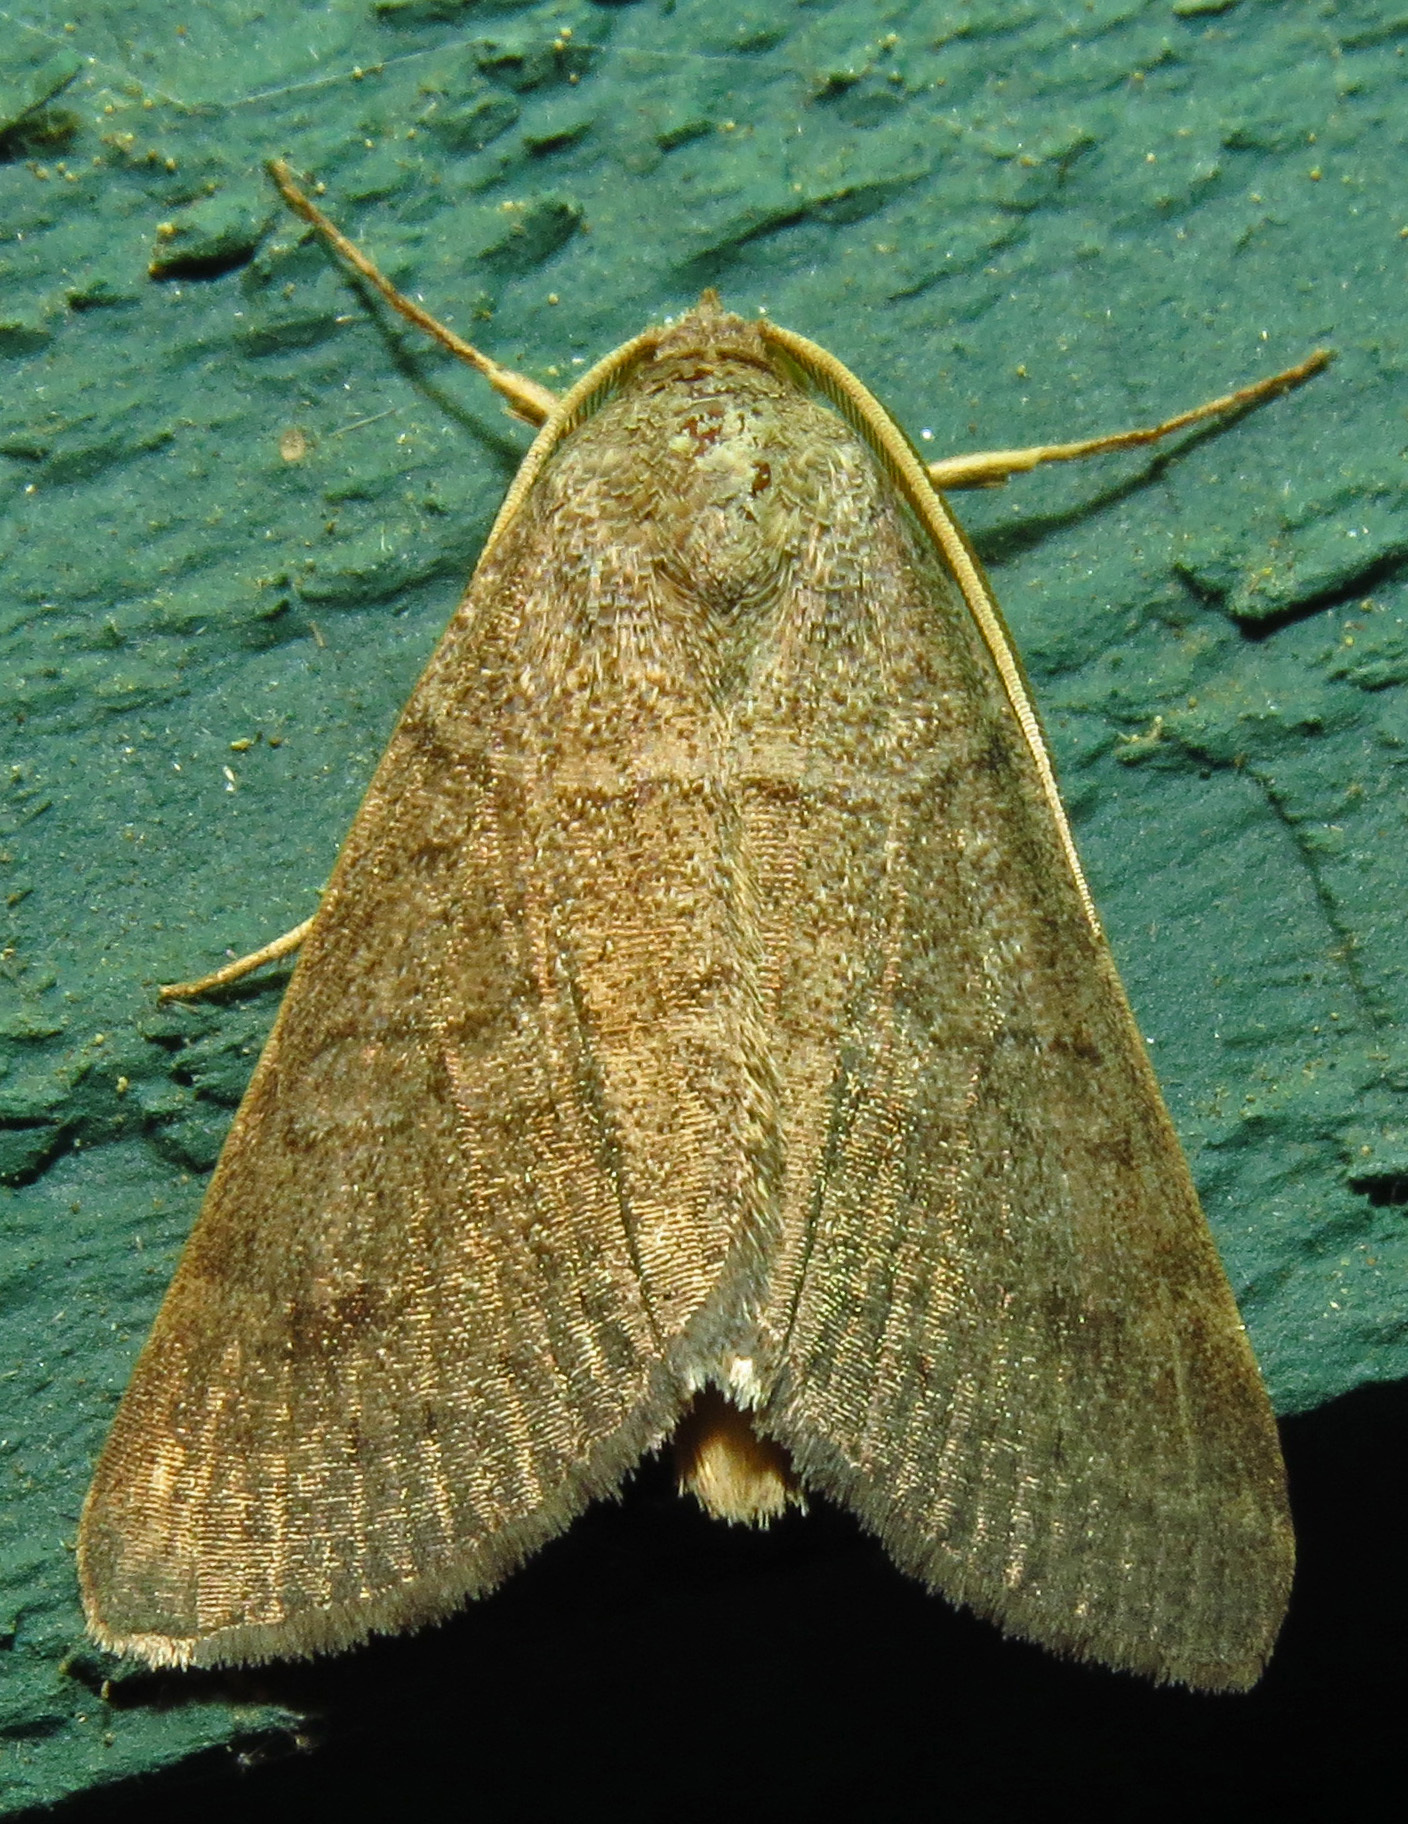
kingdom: Animalia
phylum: Arthropoda
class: Insecta
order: Lepidoptera
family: Erebidae
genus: Caenurgia
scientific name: Caenurgia chloropha
